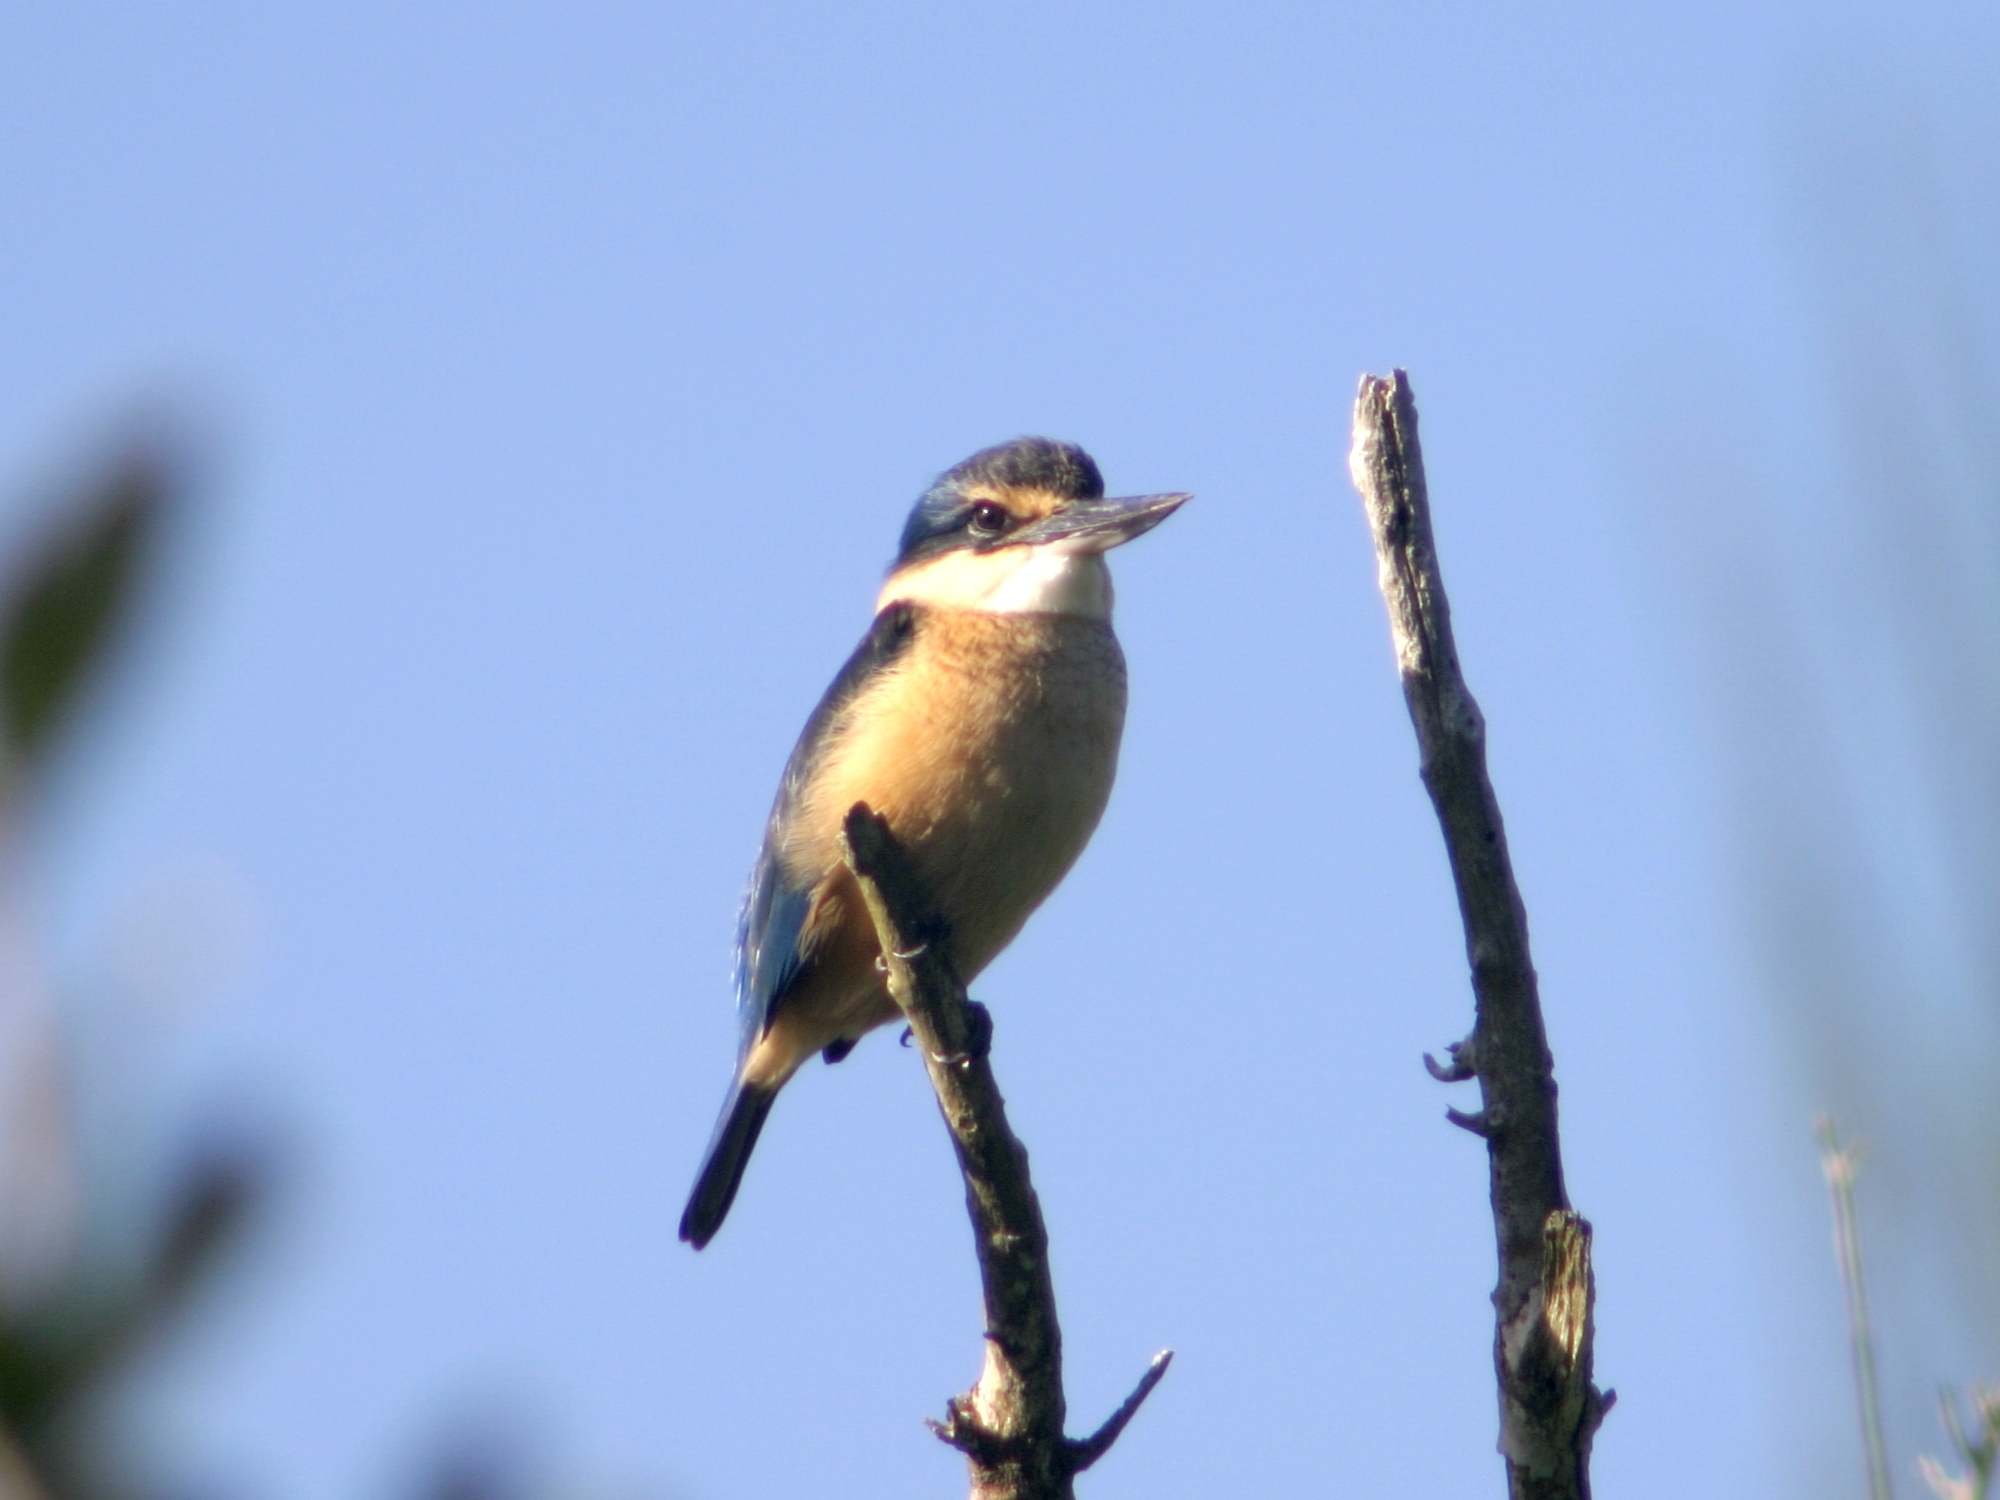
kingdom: Animalia
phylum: Chordata
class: Aves
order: Coraciiformes
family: Alcedinidae
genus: Todiramphus
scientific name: Todiramphus sanctus
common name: Sacred kingfisher
